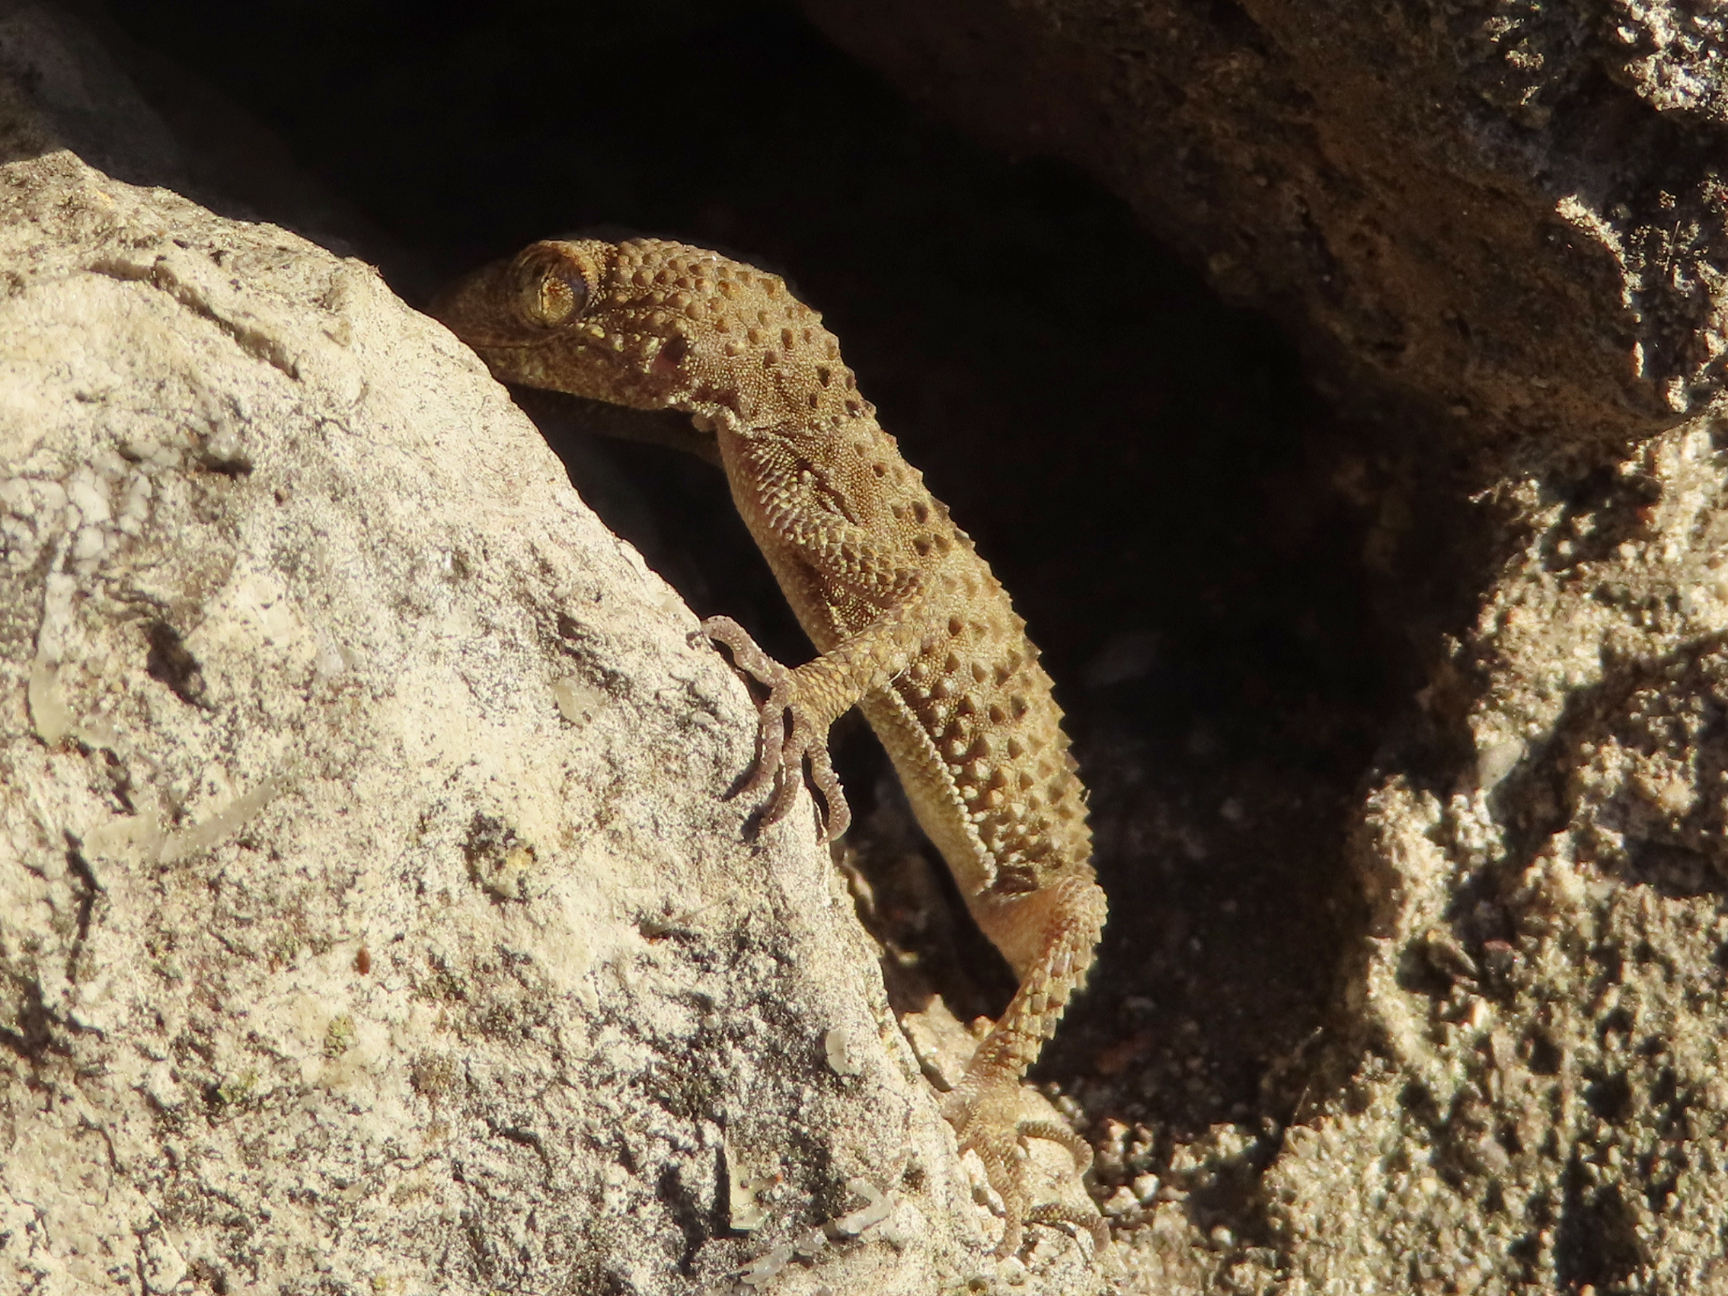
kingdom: Animalia
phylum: Chordata
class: Squamata
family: Gekkonidae
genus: Tenuidactylus
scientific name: Tenuidactylus caspius
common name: Caspian bent-toed gecko
